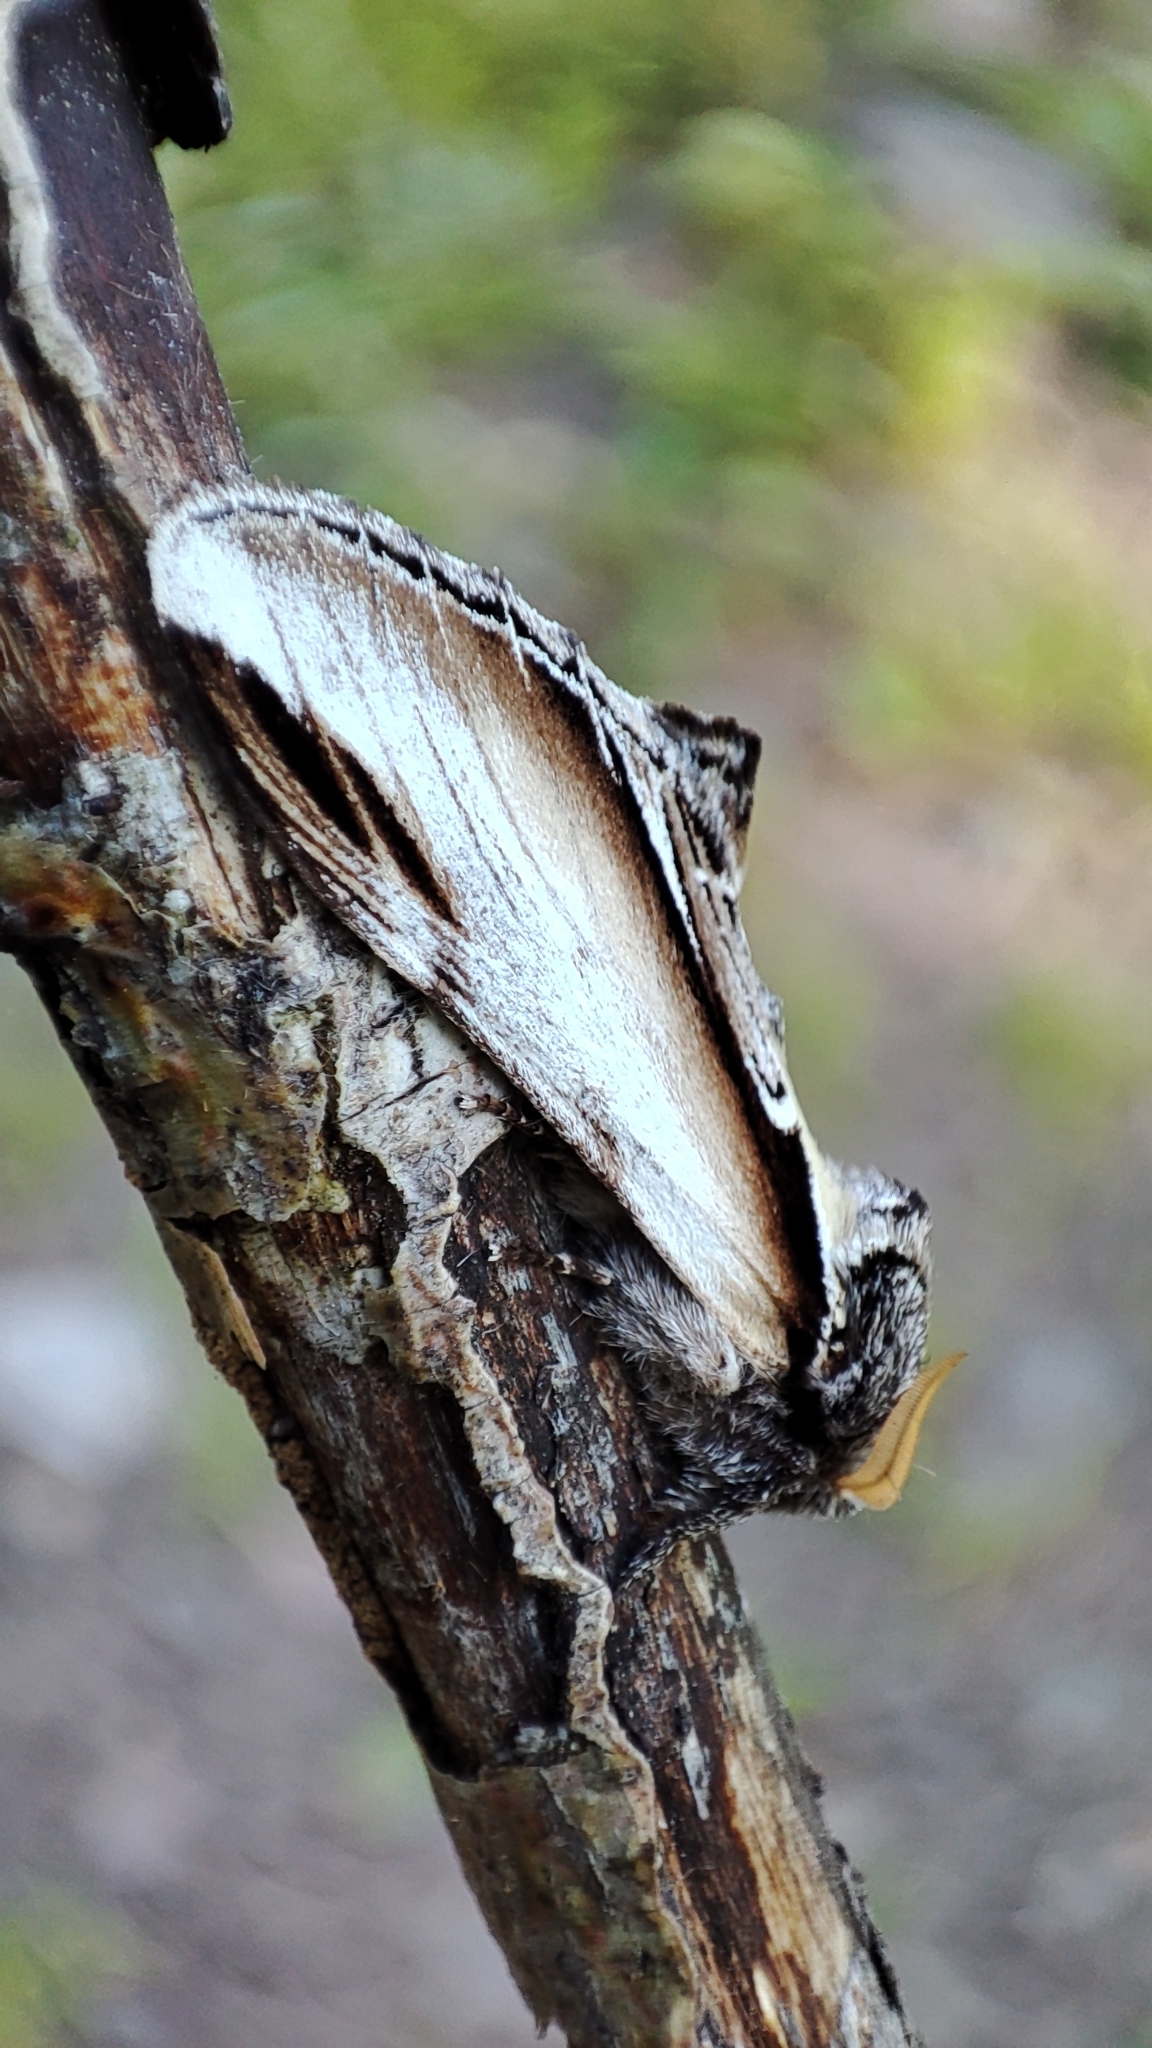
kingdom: Animalia
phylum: Arthropoda
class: Insecta
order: Lepidoptera
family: Notodontidae
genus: Pheosia
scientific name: Pheosia tremula
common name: Swallow prominent
